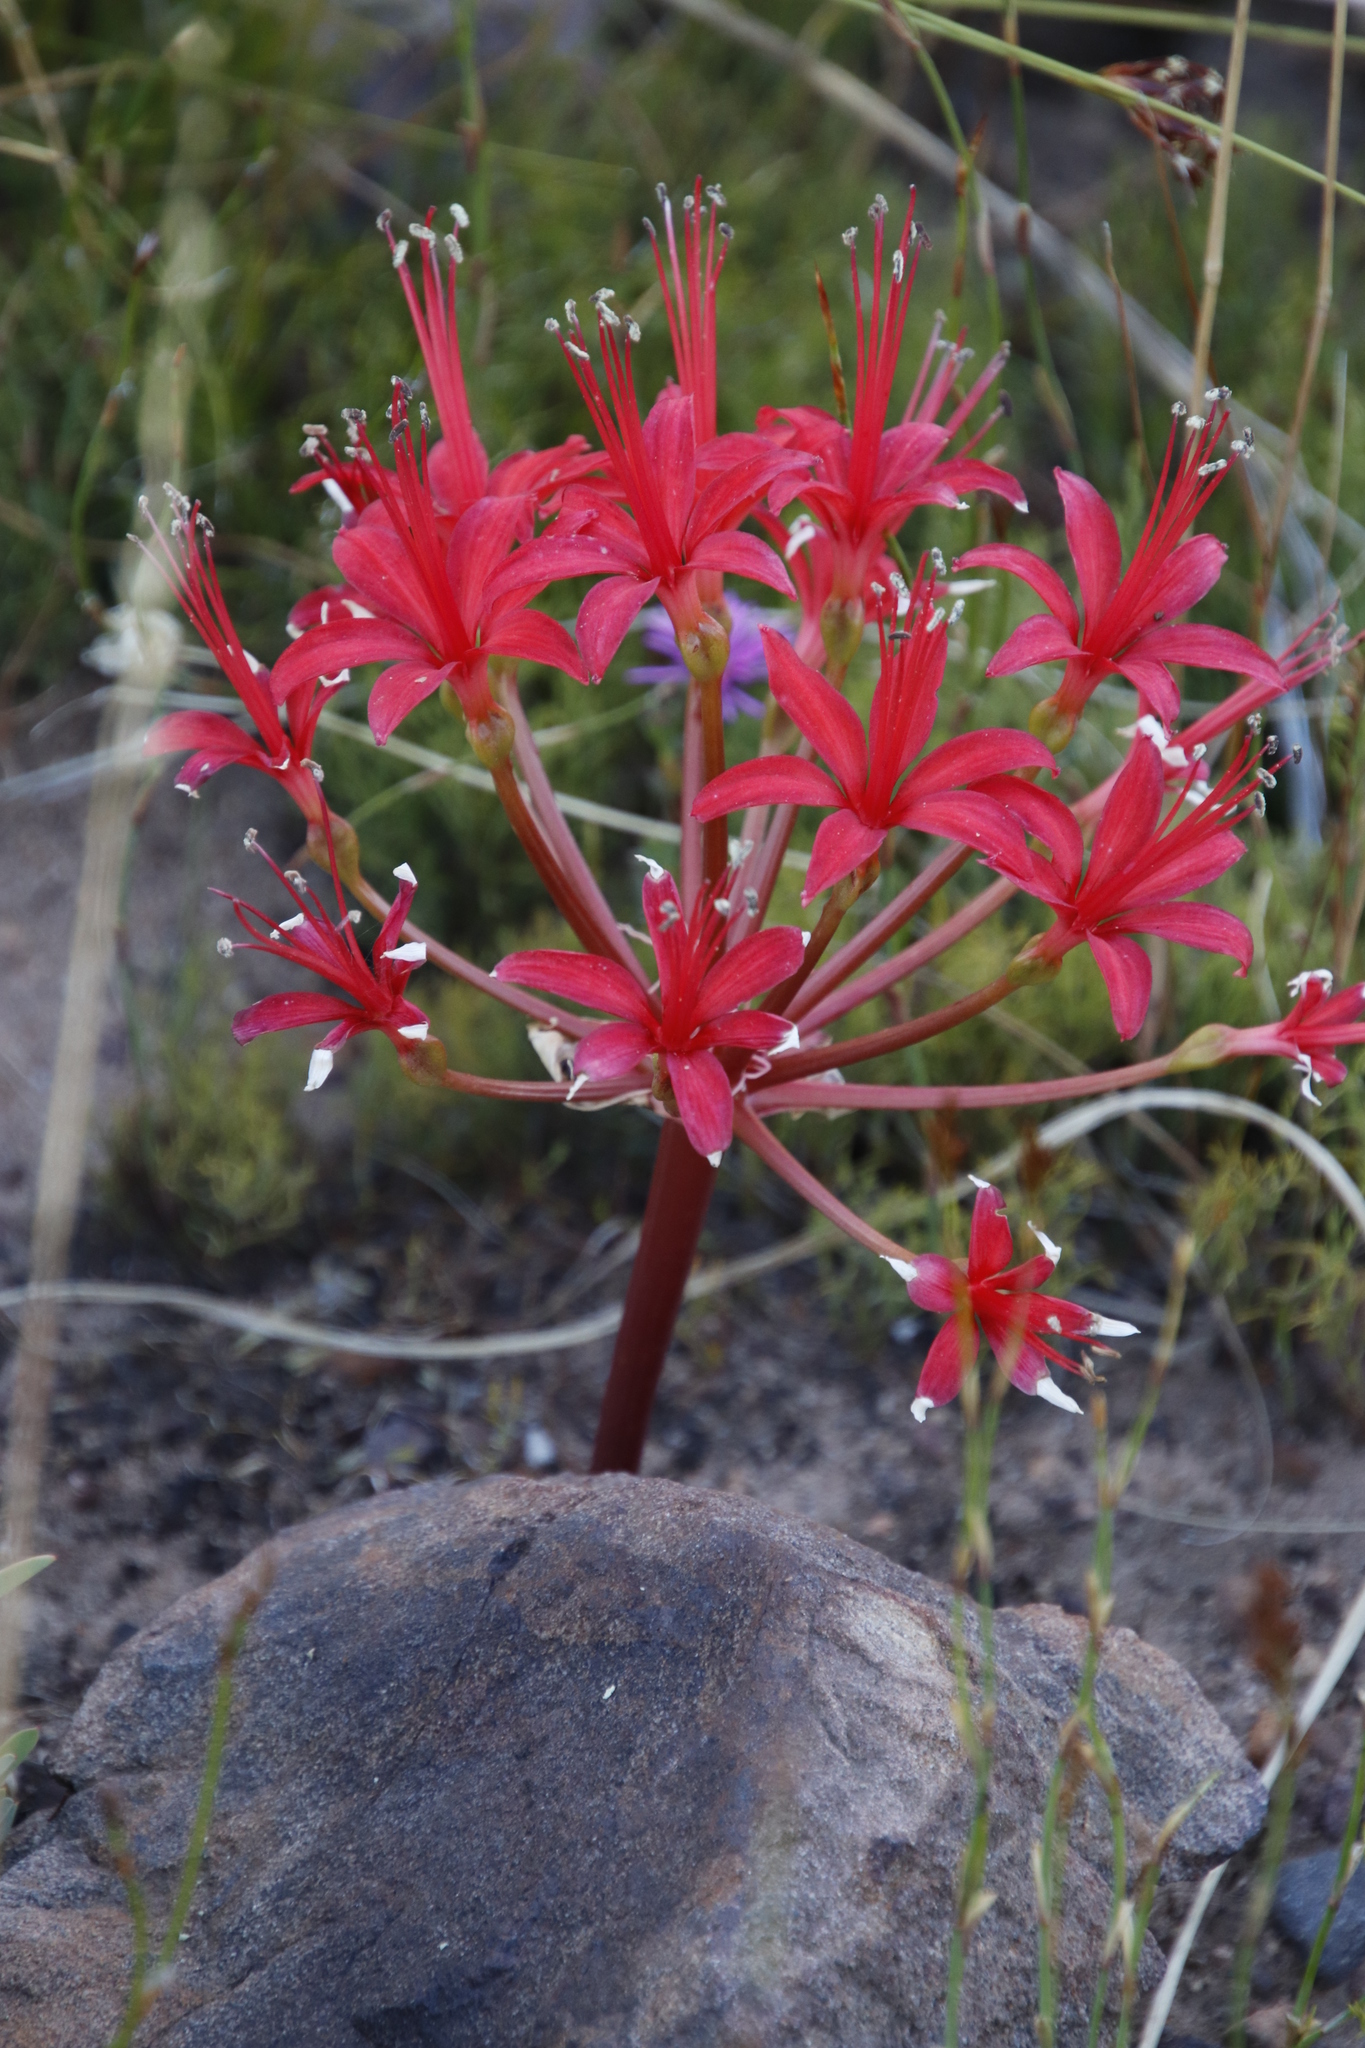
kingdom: Plantae
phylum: Tracheophyta
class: Liliopsida
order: Asparagales
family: Amaryllidaceae
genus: Brunsvigia
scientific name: Brunsvigia marginata
